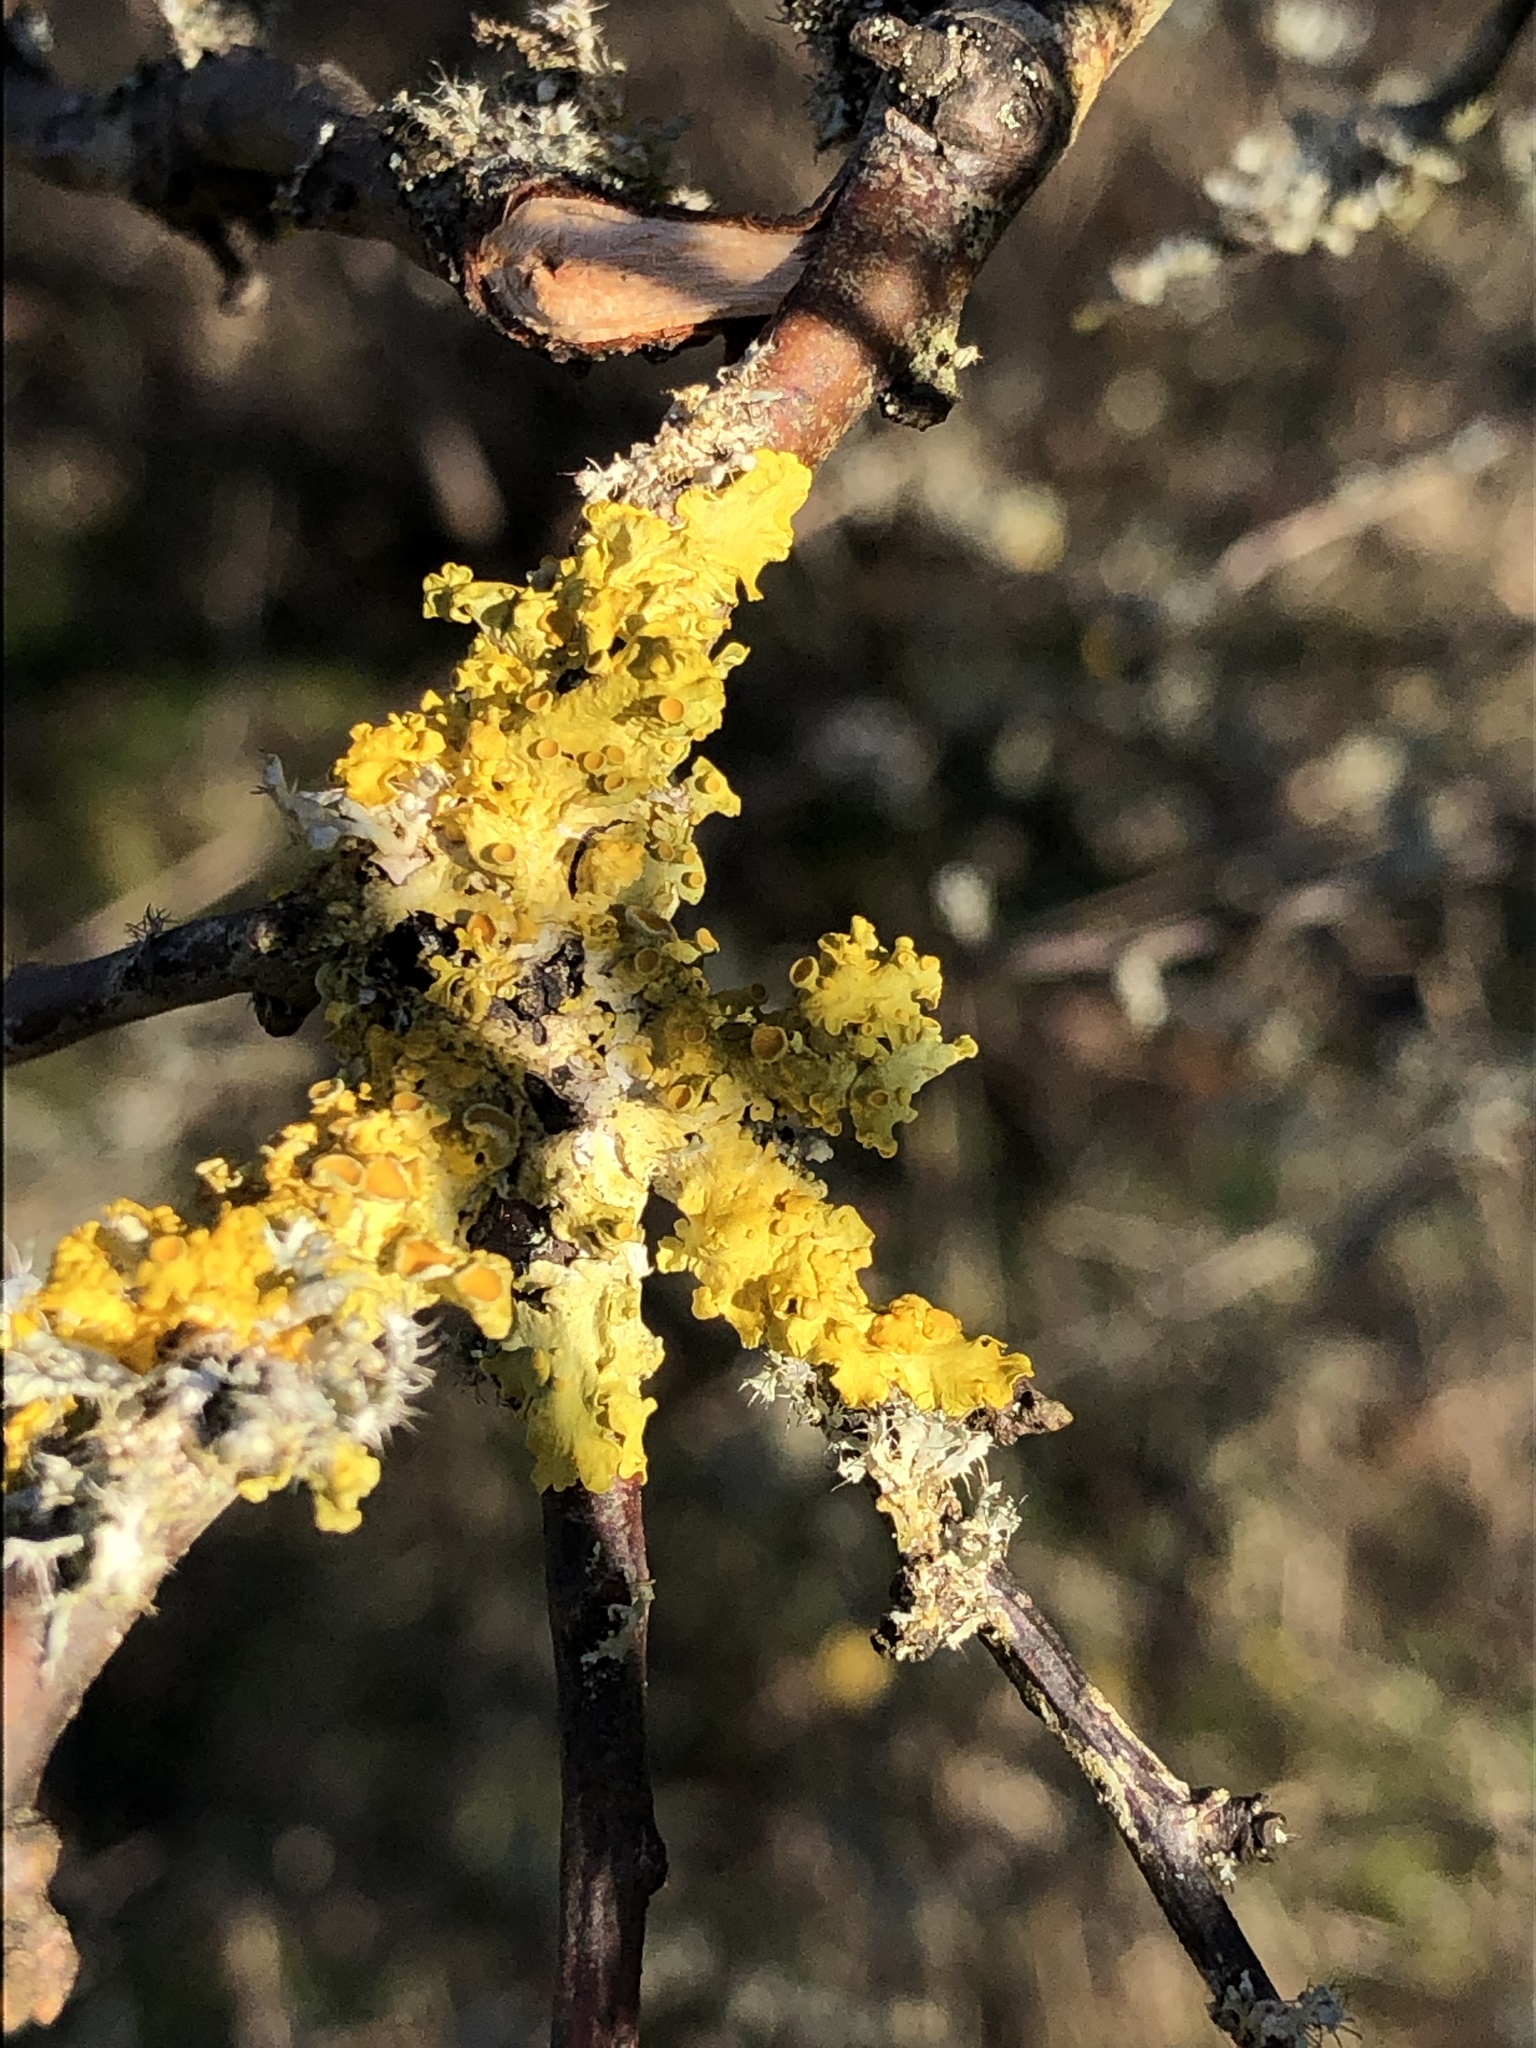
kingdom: Fungi
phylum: Ascomycota
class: Lecanoromycetes
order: Teloschistales
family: Teloschistaceae
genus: Xanthoria
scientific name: Xanthoria parietina
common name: Common orange lichen
